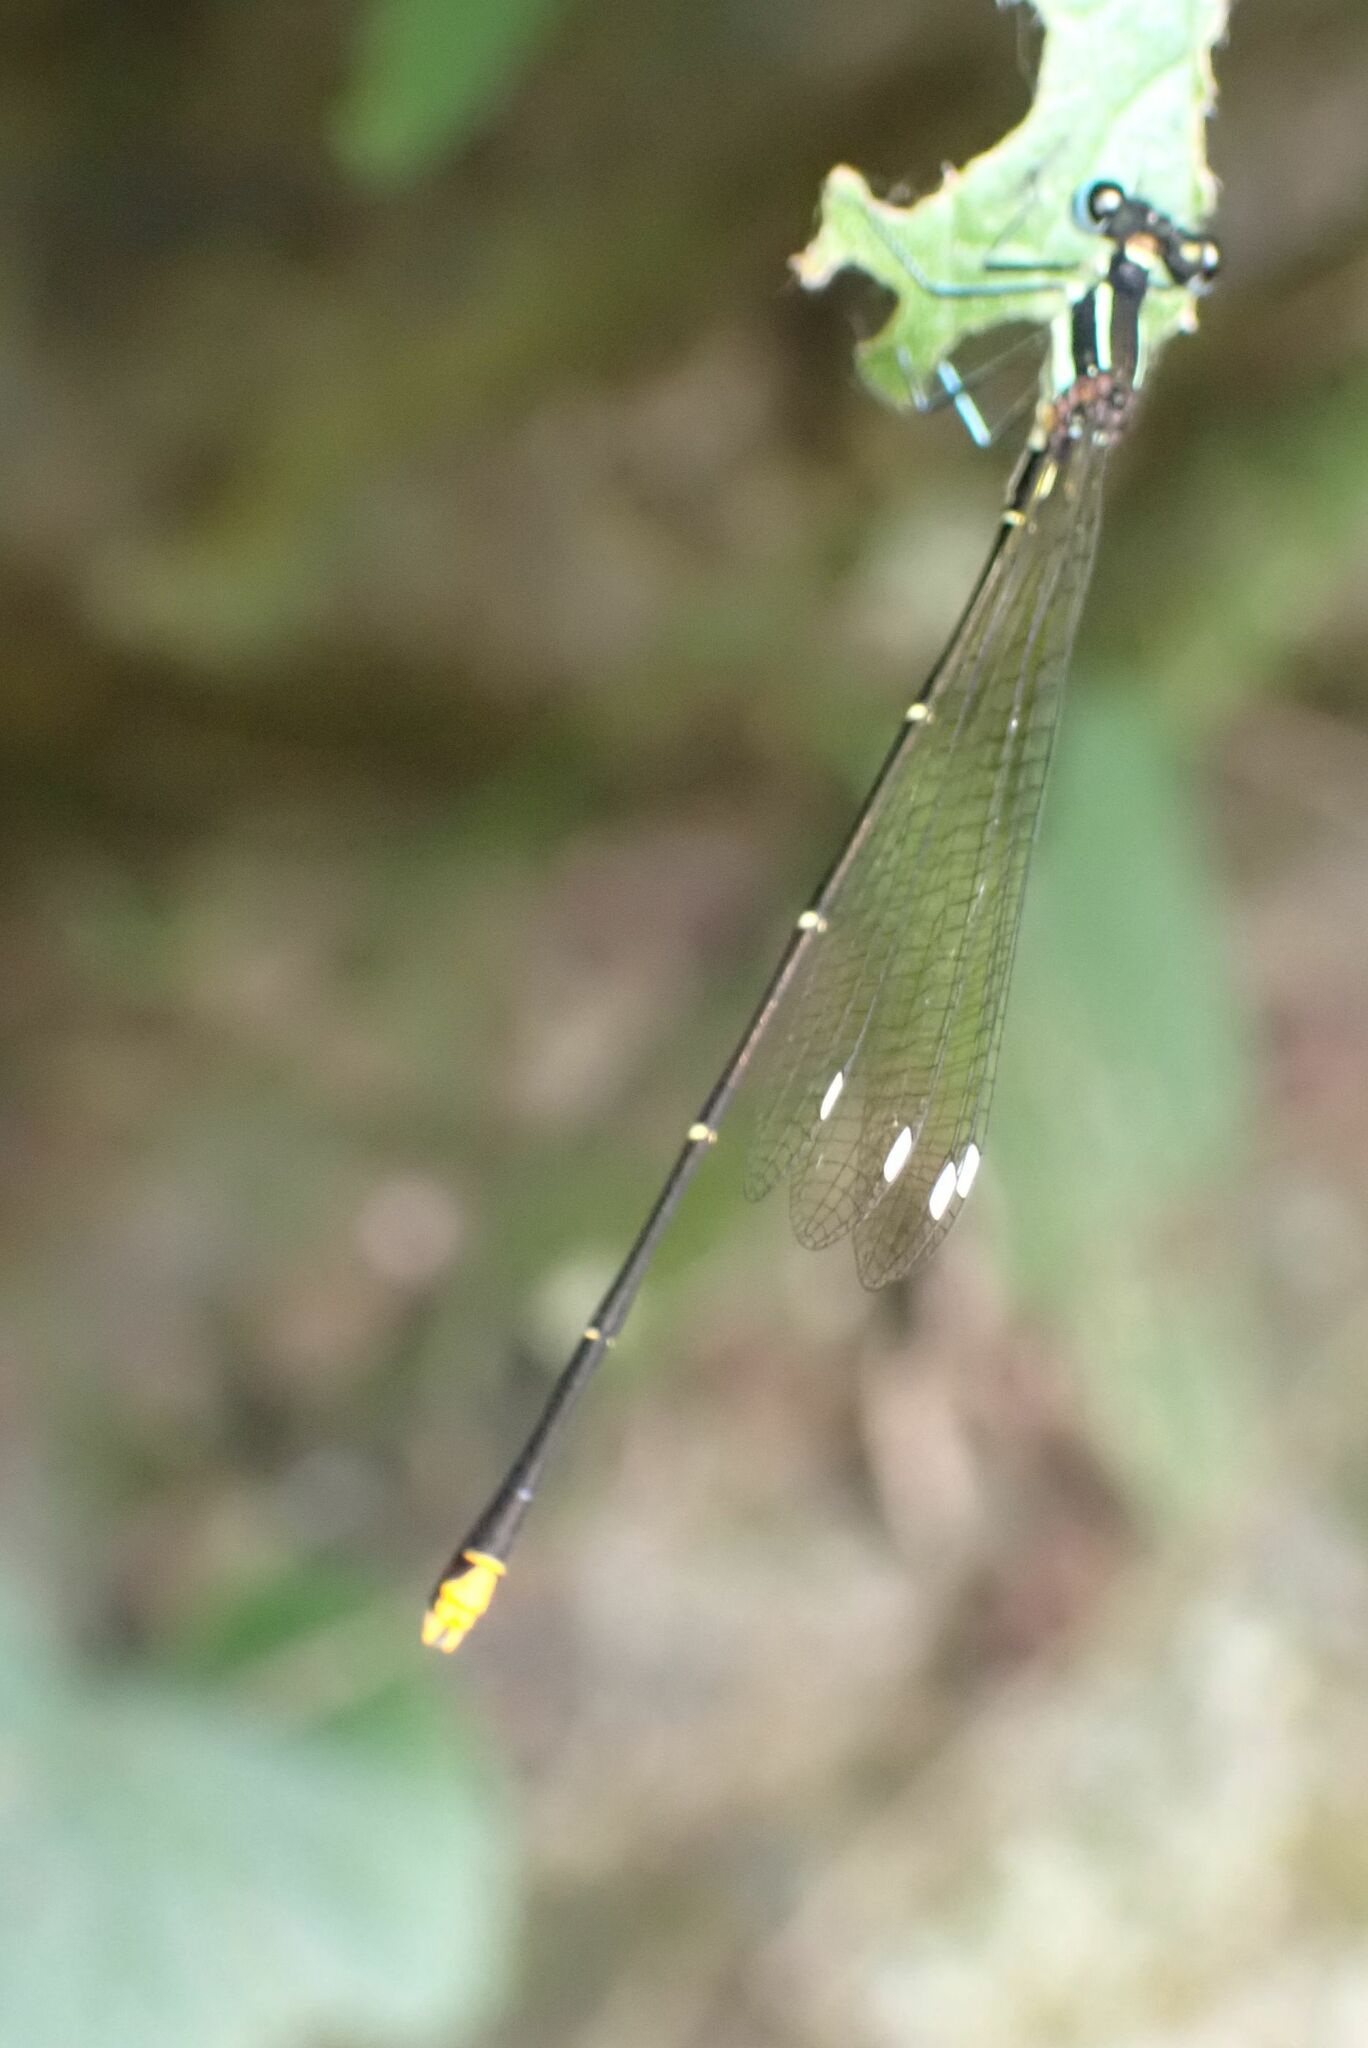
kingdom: Animalia
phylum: Arthropoda
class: Insecta
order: Odonata
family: Platycnemididae
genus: Allocnemis
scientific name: Allocnemis leucosticta
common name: Goldtail
